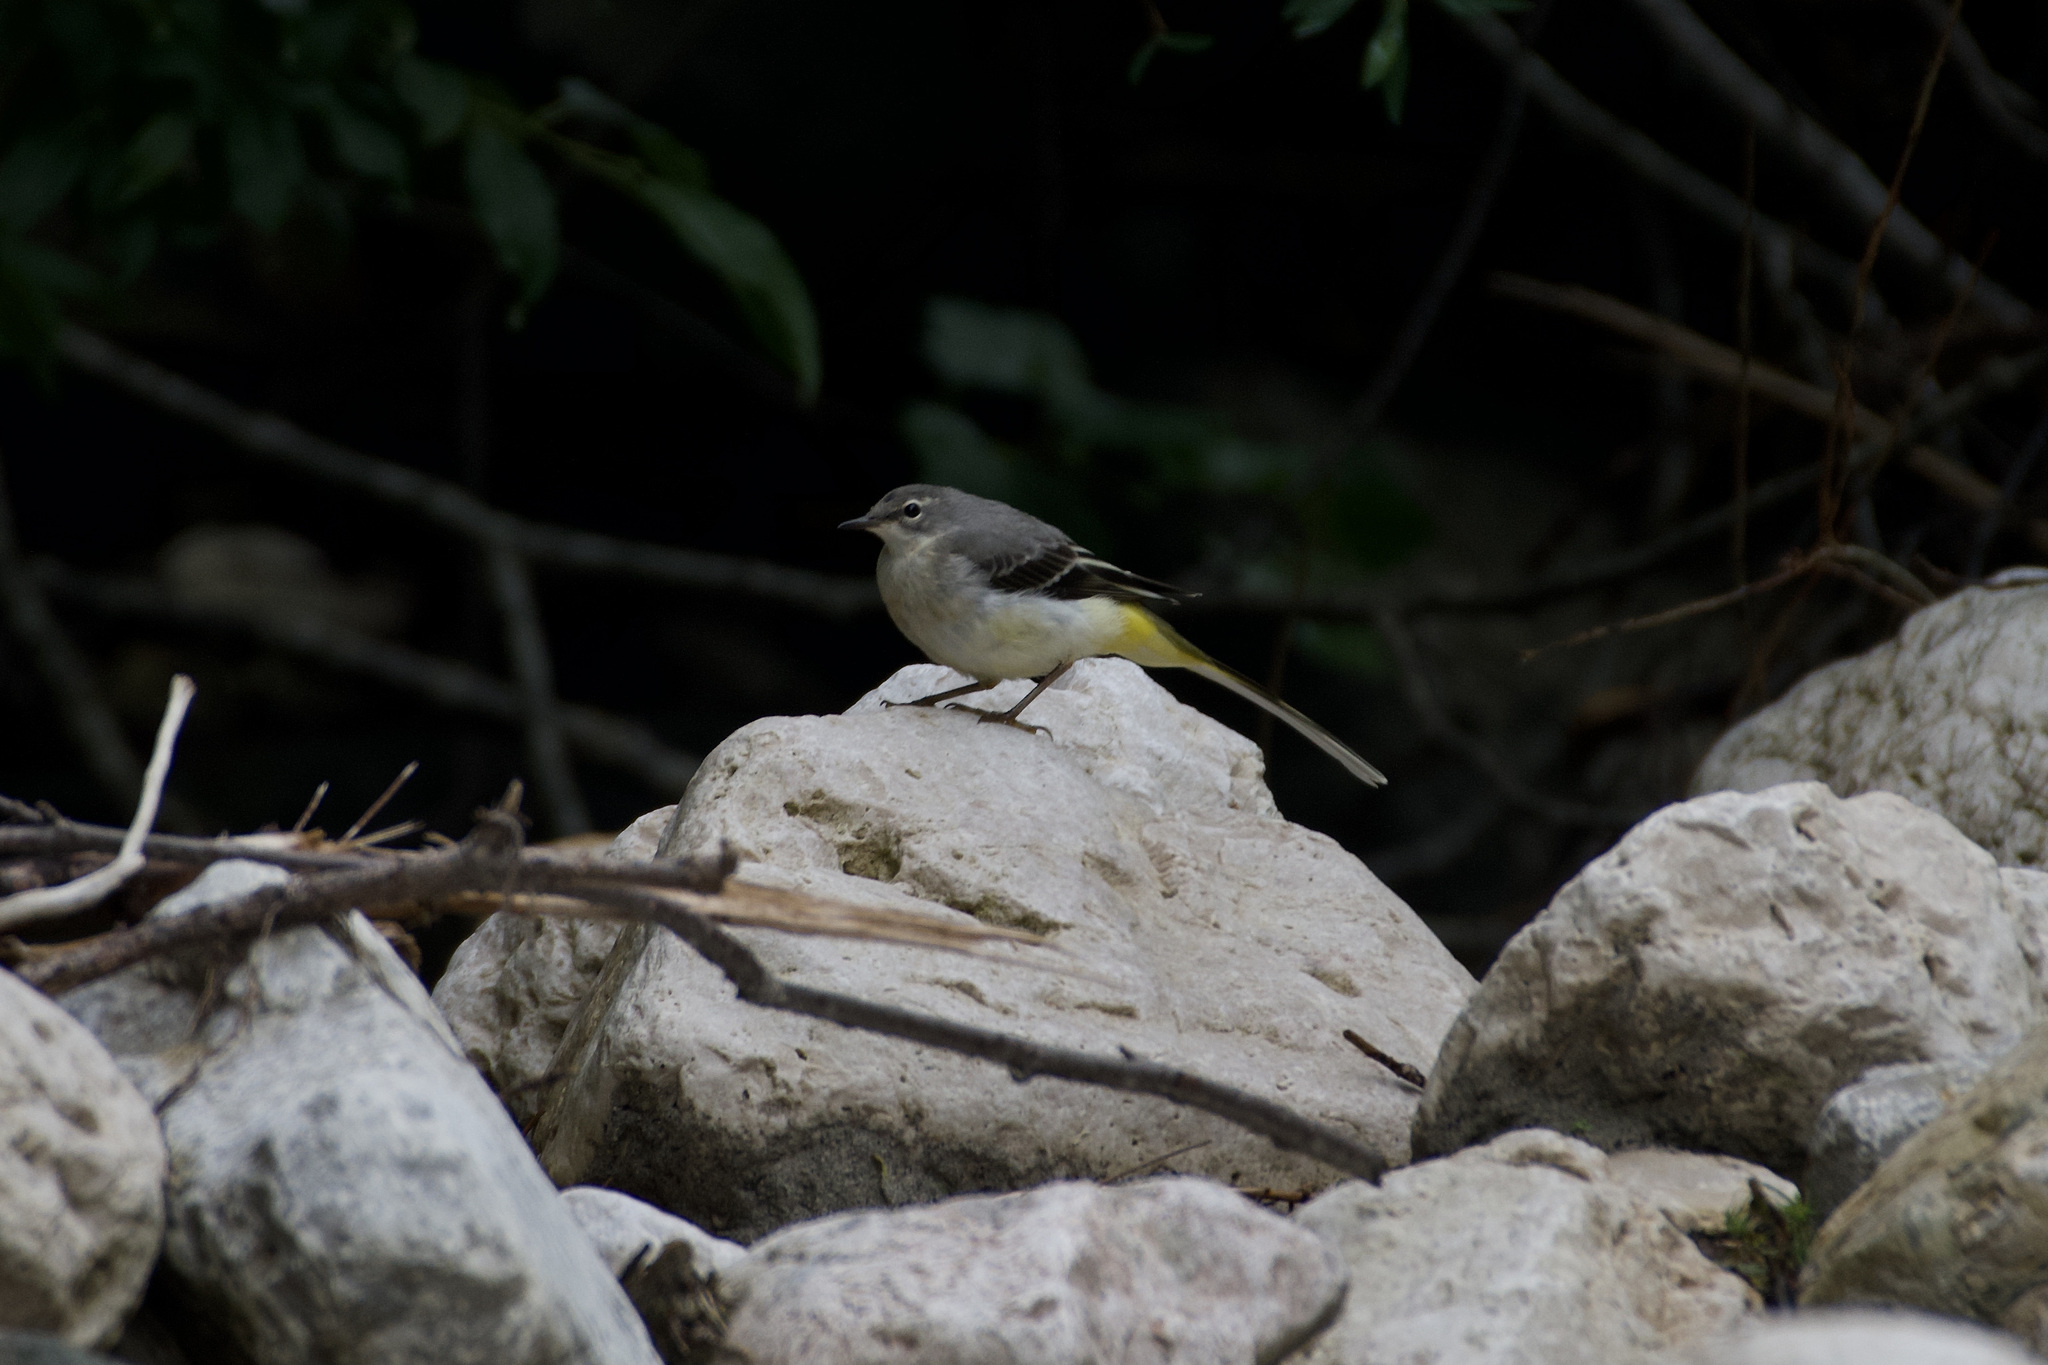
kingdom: Animalia
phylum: Chordata
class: Aves
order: Passeriformes
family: Motacillidae
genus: Motacilla
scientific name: Motacilla cinerea
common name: Grey wagtail
